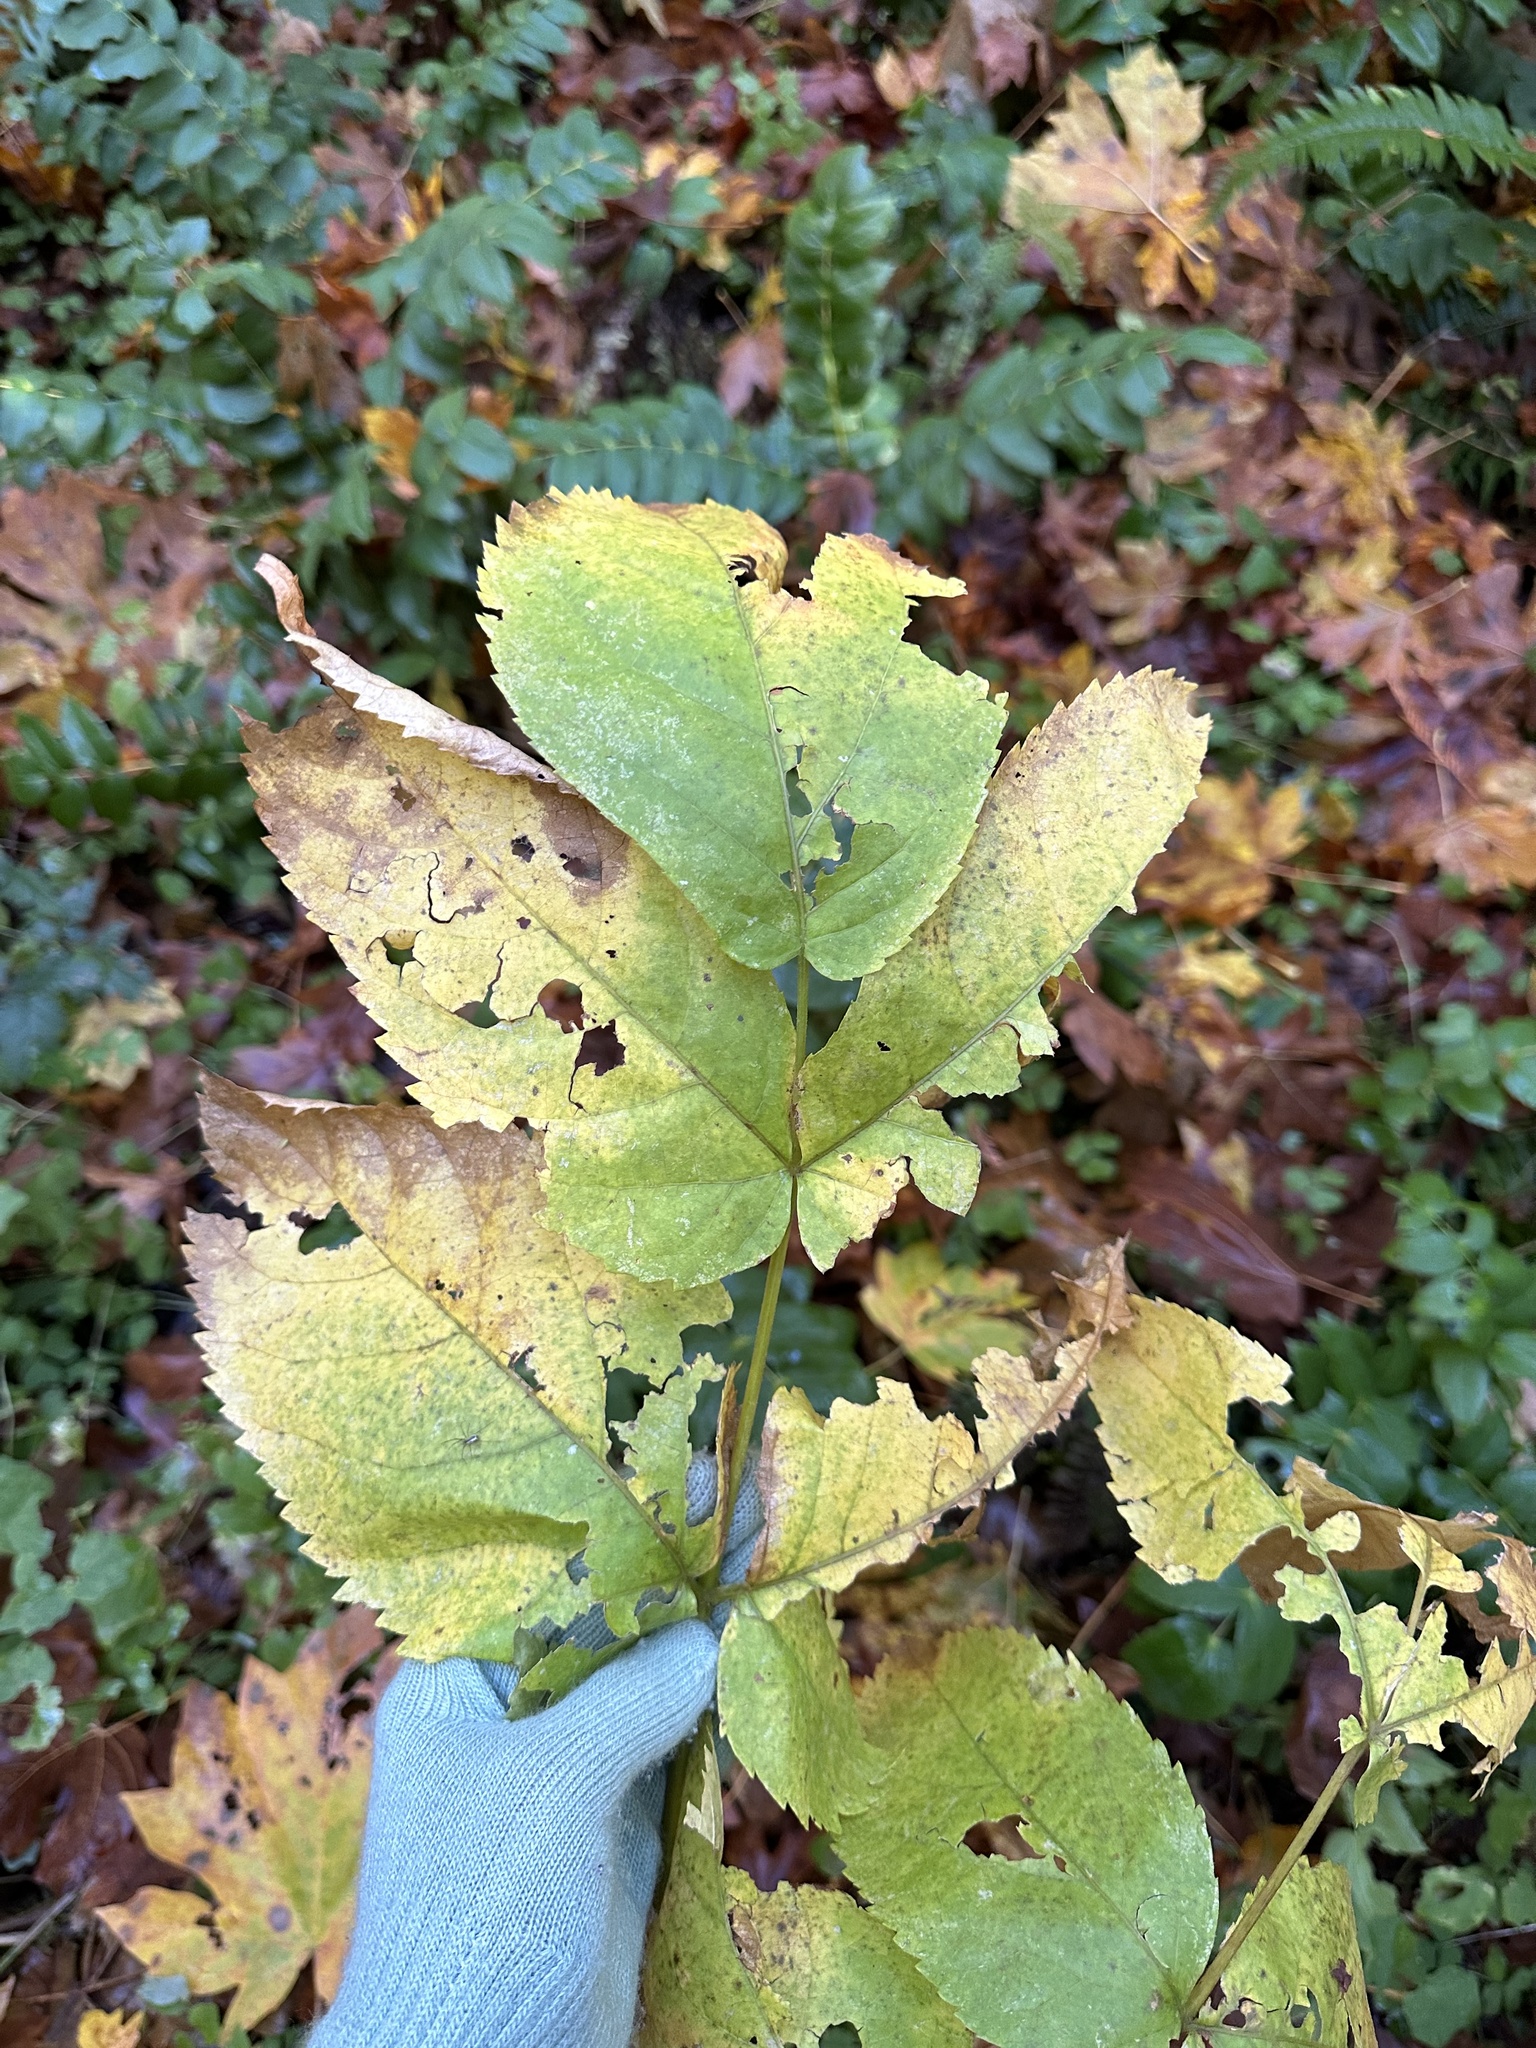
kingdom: Plantae
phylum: Tracheophyta
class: Magnoliopsida
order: Apiales
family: Araliaceae
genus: Aralia
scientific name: Aralia californica
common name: California-ginseng
